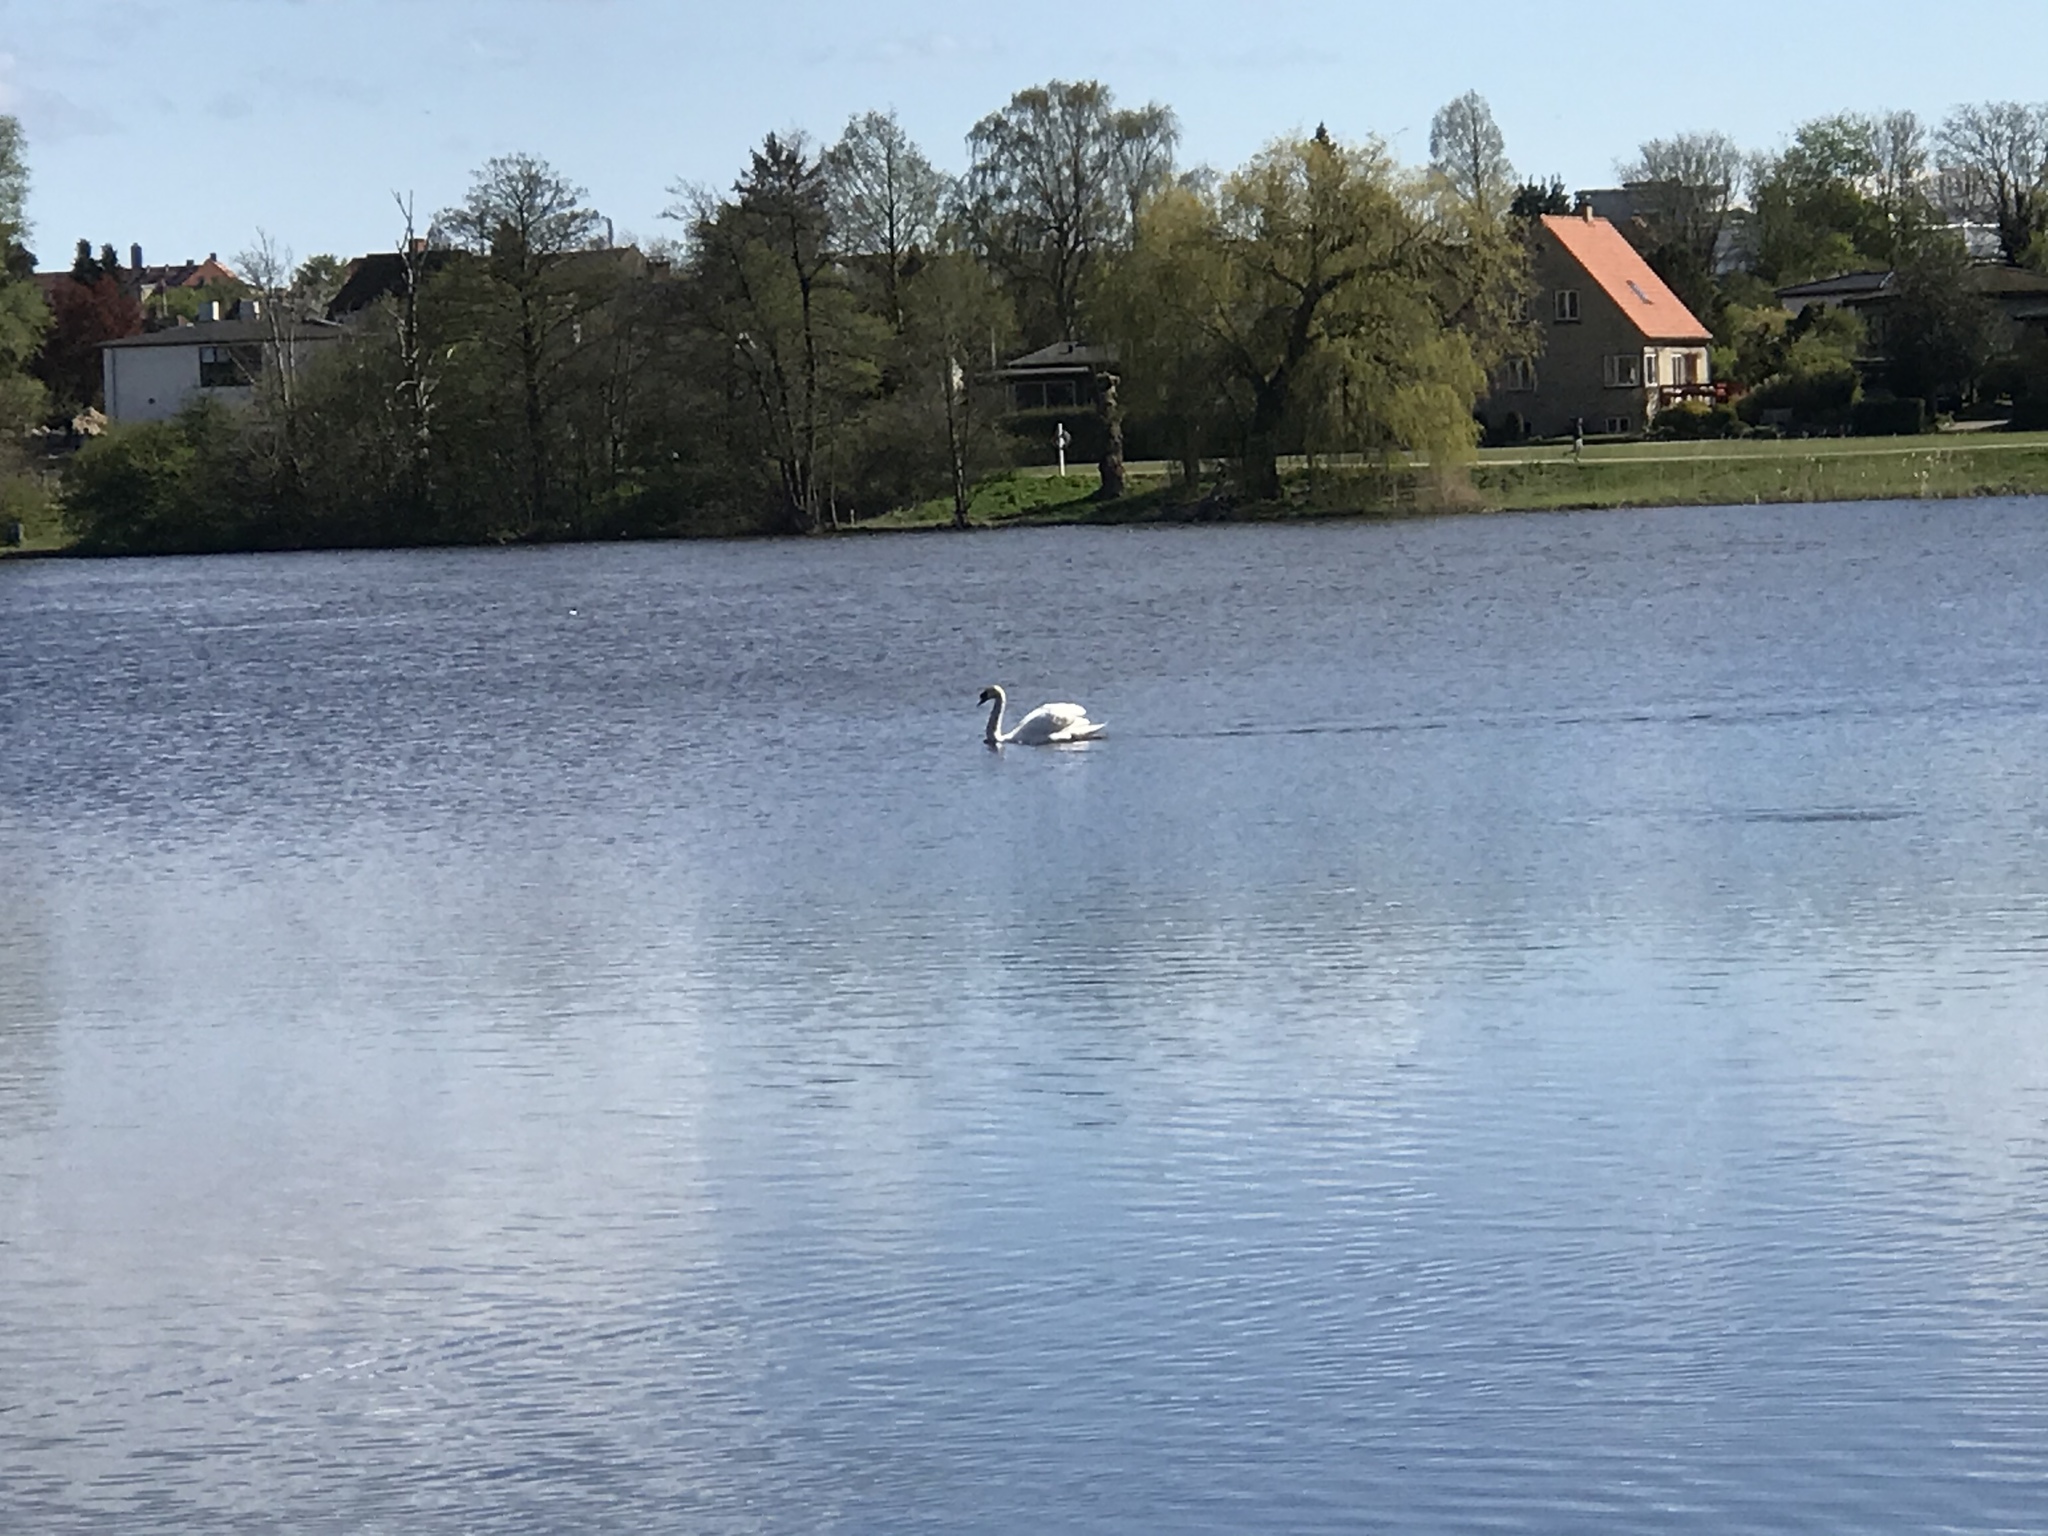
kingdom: Animalia
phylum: Chordata
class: Aves
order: Anseriformes
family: Anatidae
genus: Cygnus
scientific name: Cygnus olor
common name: Mute swan
